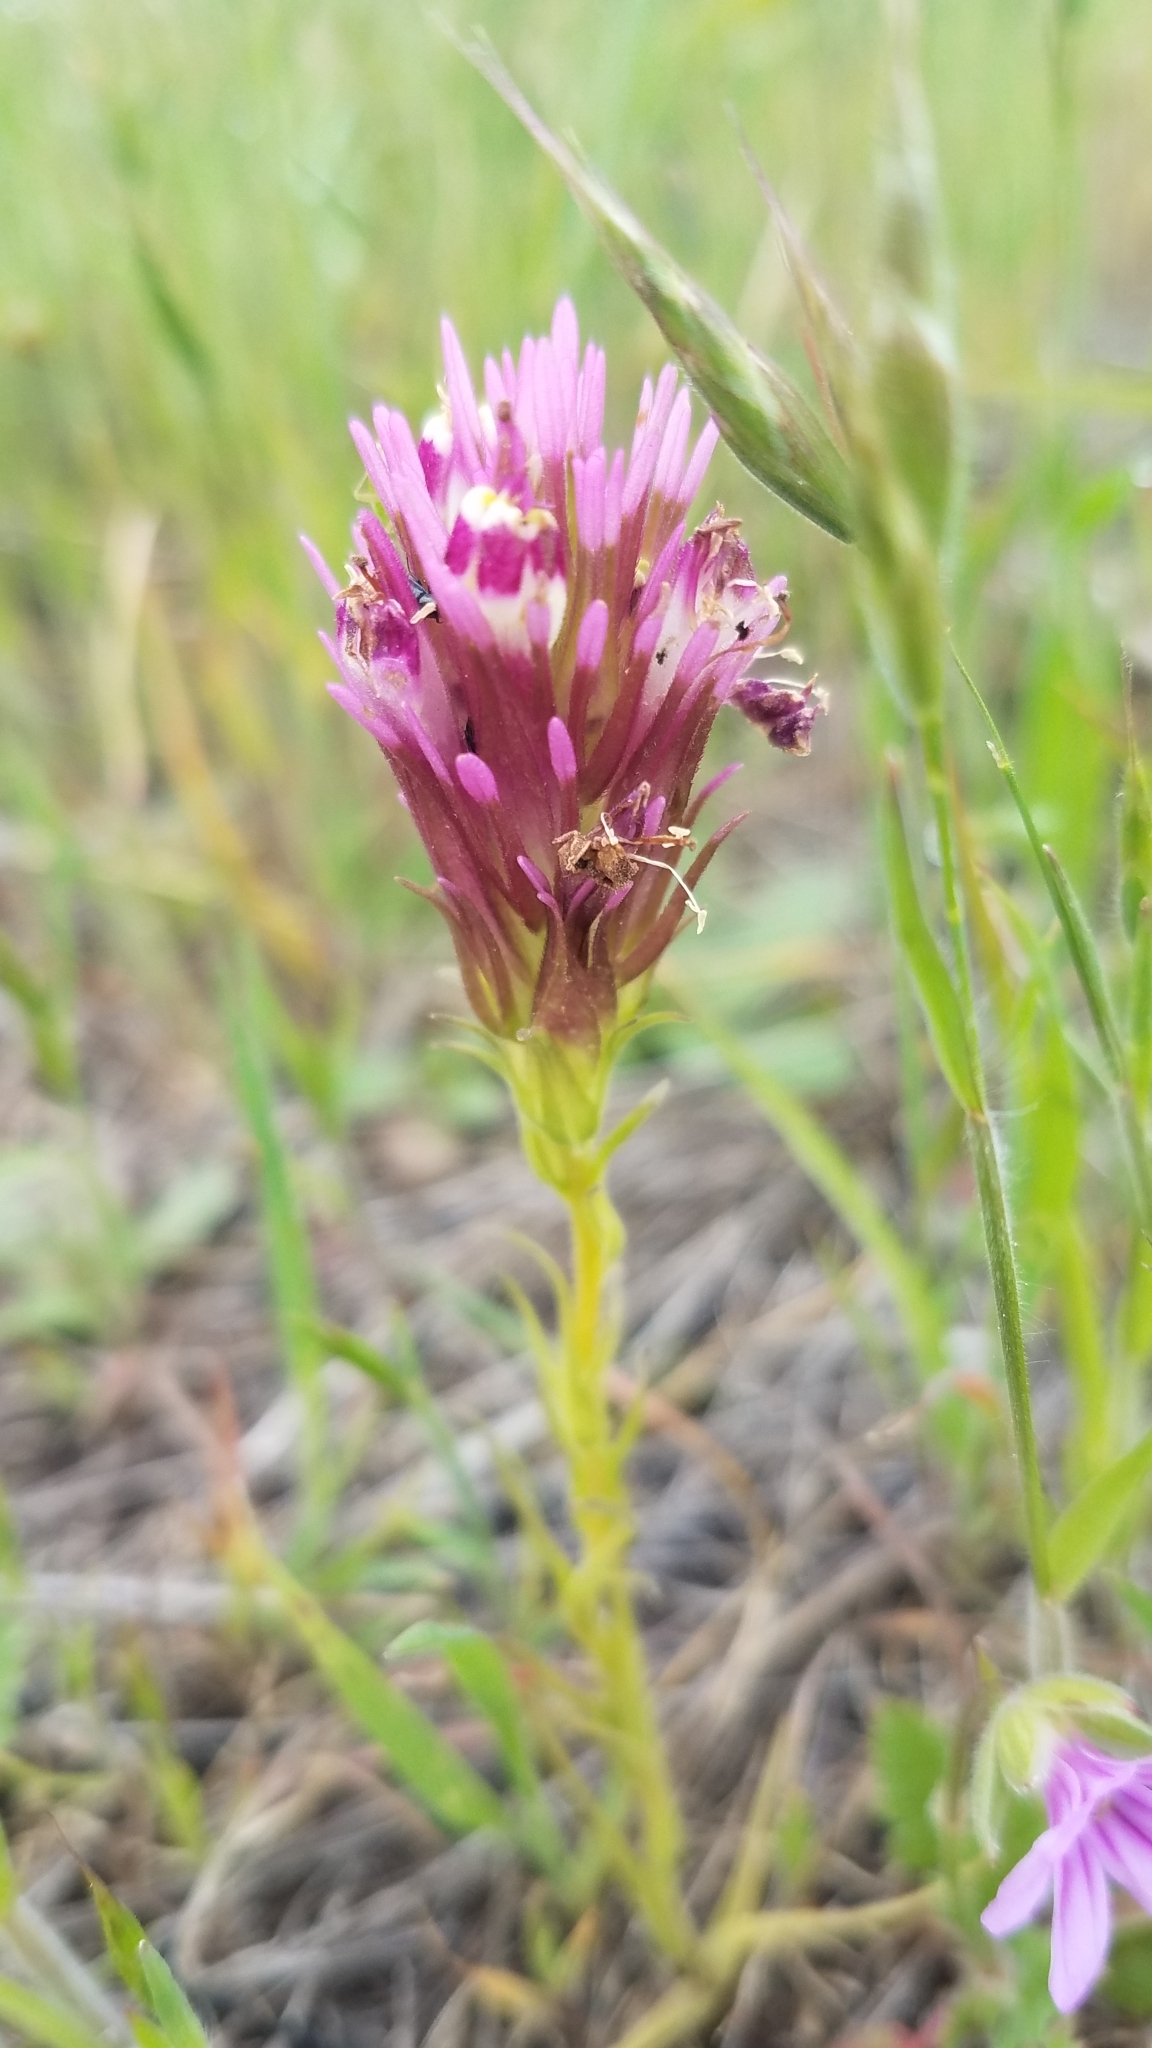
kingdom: Plantae
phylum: Tracheophyta
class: Magnoliopsida
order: Lamiales
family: Orobanchaceae
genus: Castilleja
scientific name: Castilleja densiflora
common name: Dense-flower indian paintbrush
